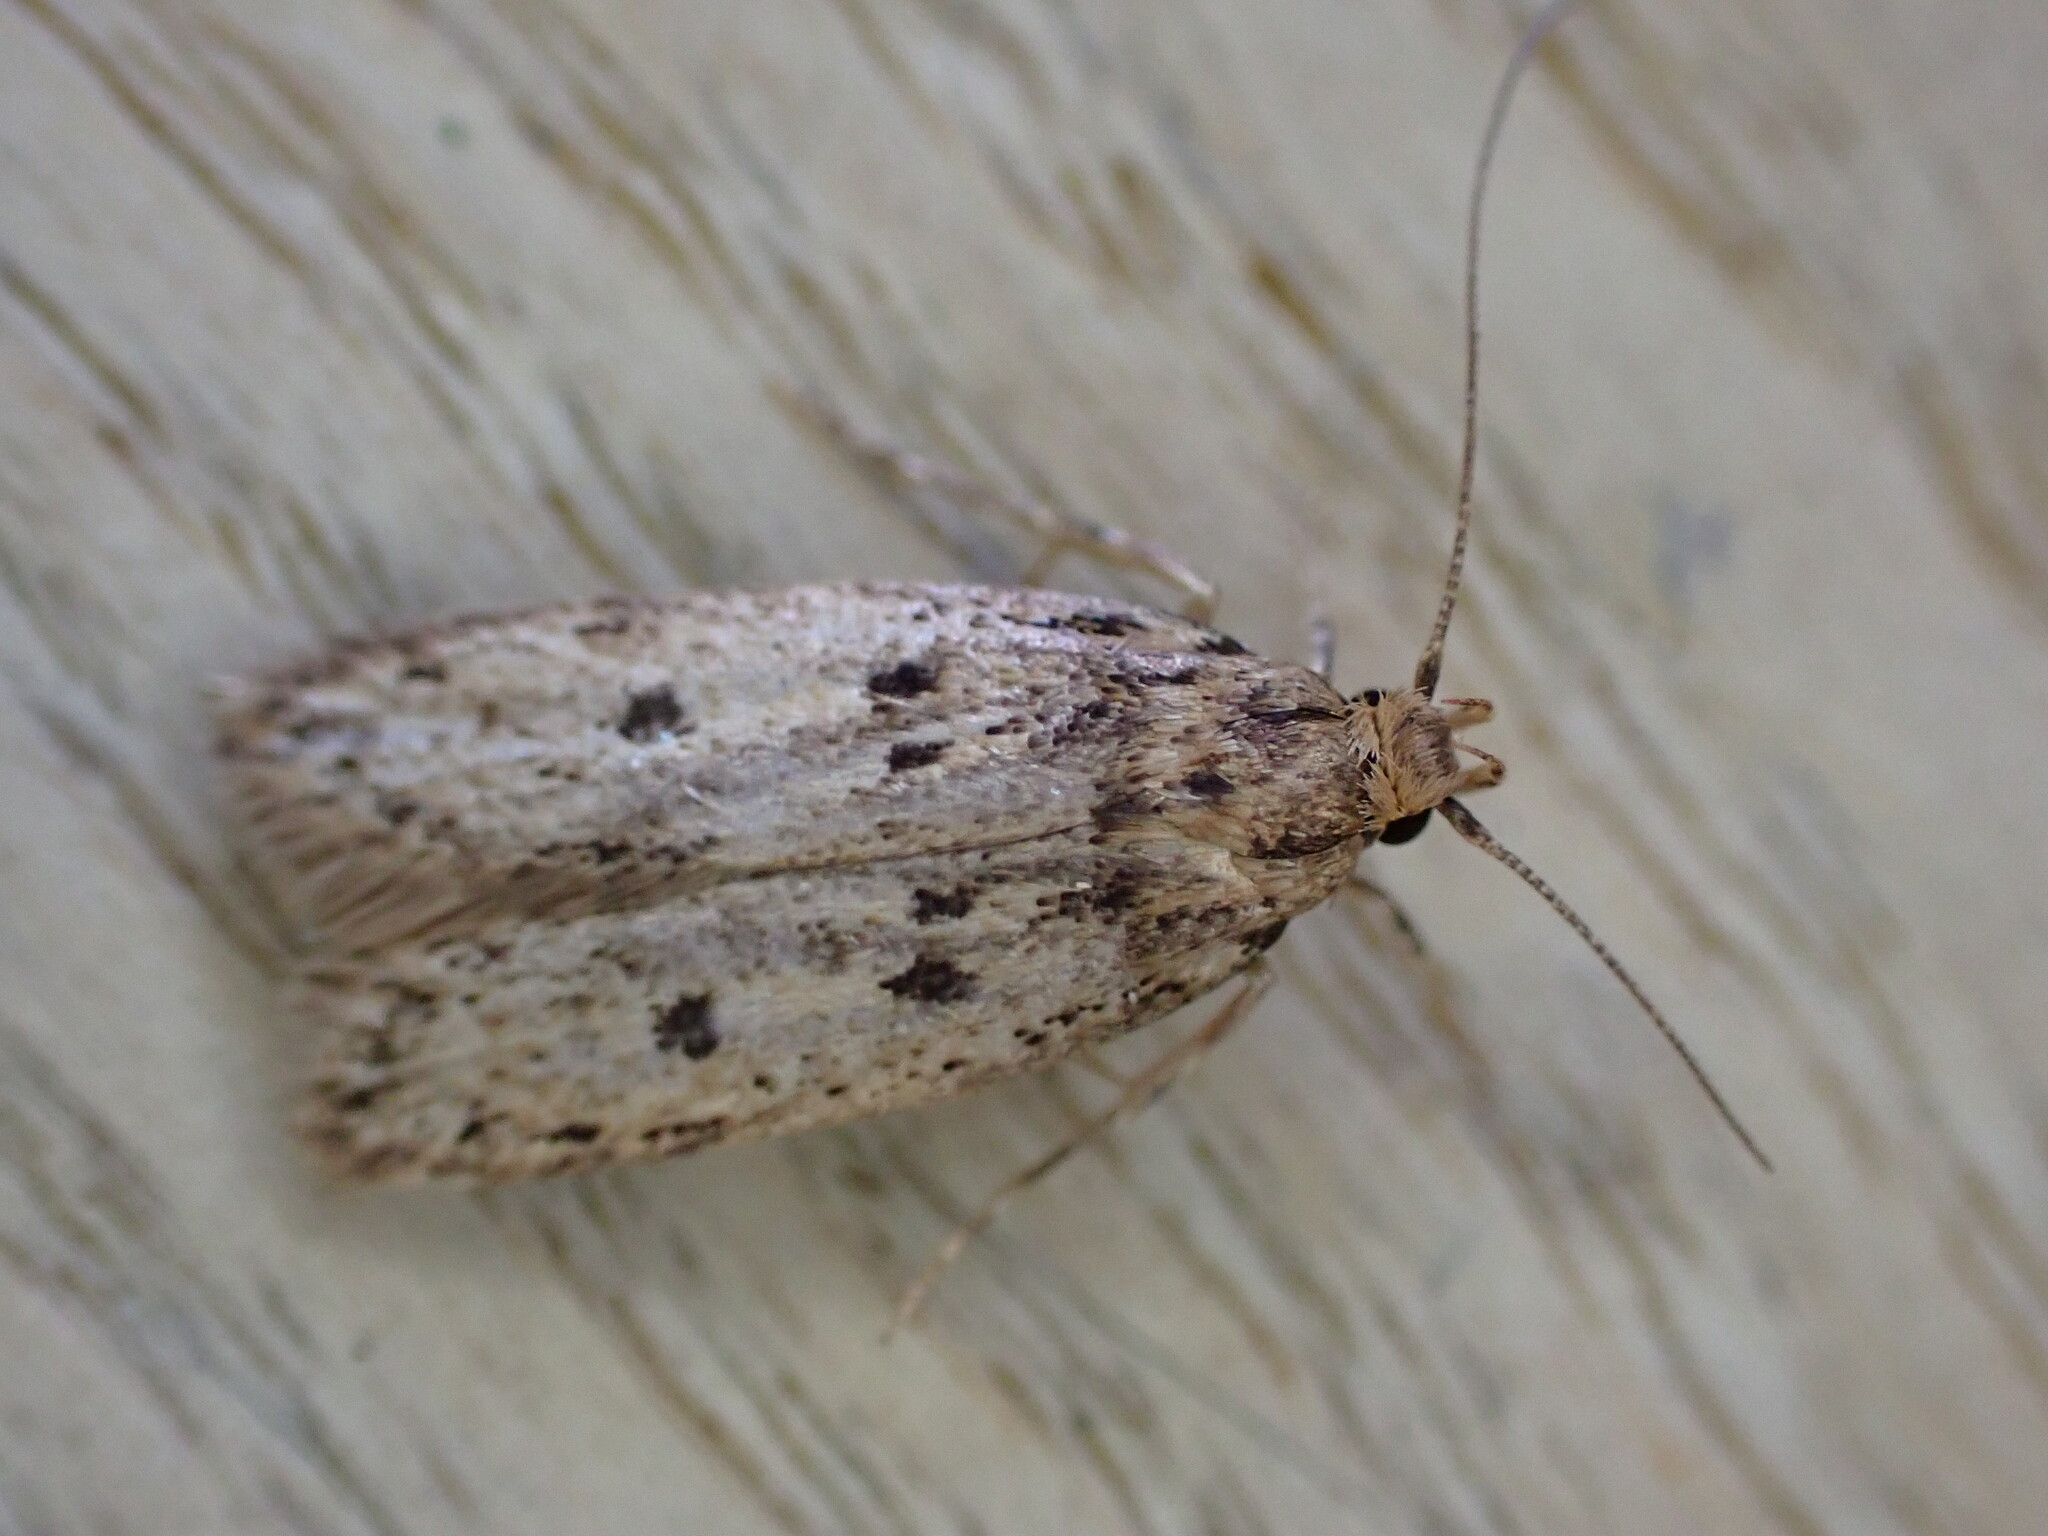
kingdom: Animalia
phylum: Arthropoda
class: Insecta
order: Lepidoptera
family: Oecophoridae
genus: Hofmannophila
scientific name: Hofmannophila pseudospretella
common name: Brown house moth
